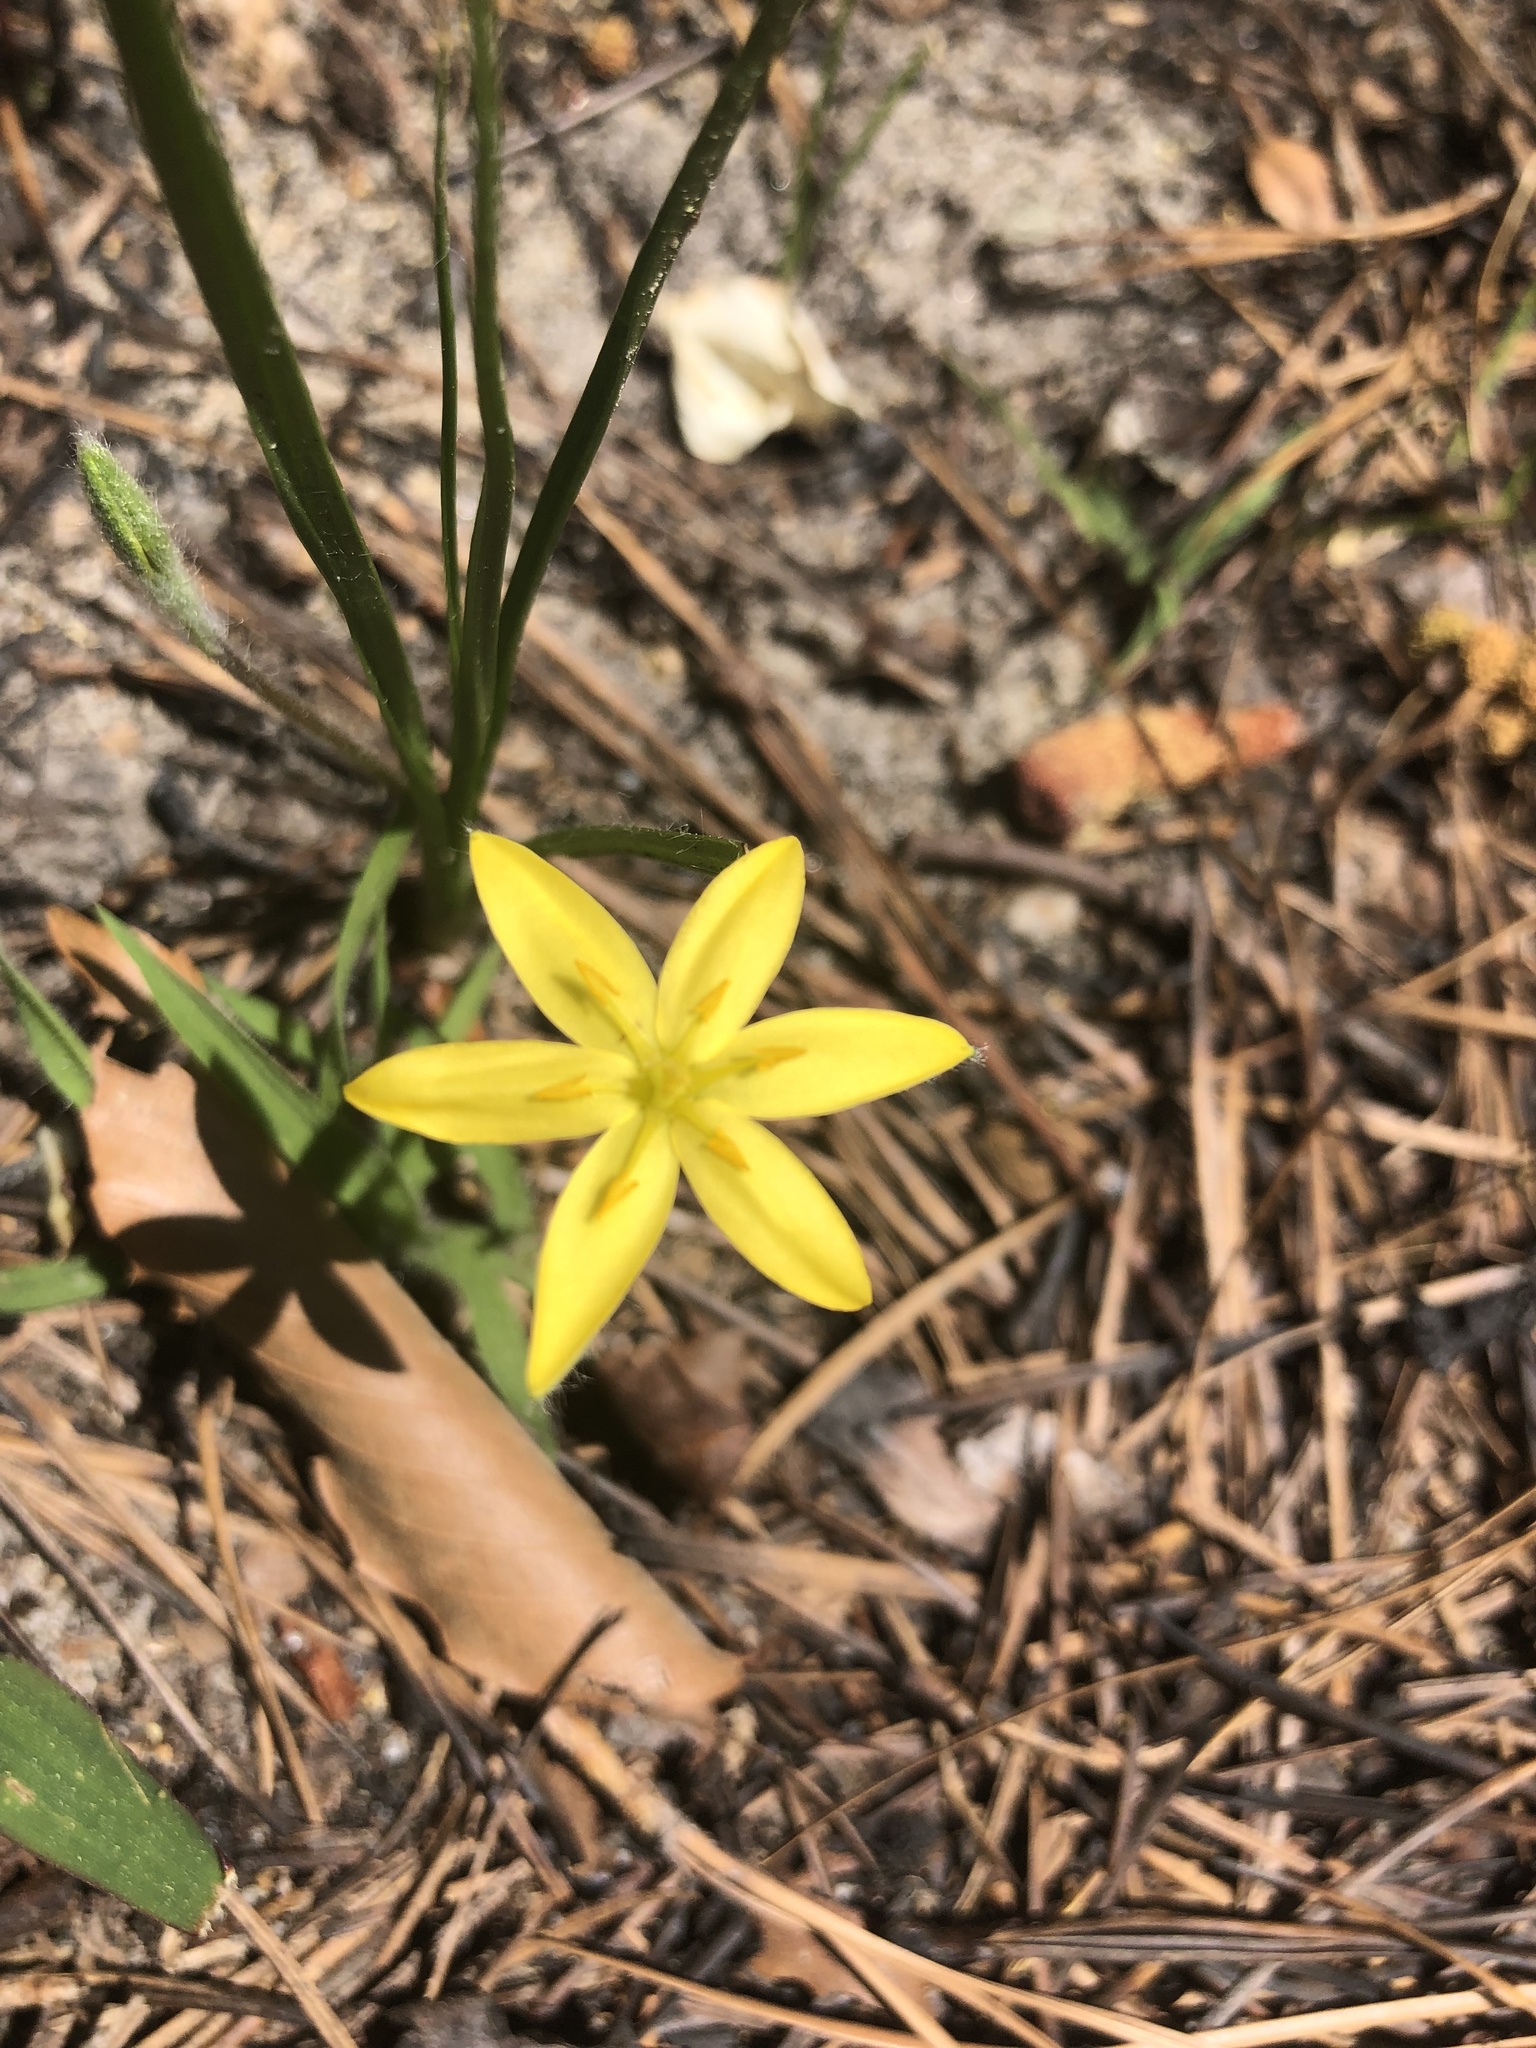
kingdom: Plantae
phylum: Tracheophyta
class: Liliopsida
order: Asparagales
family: Hypoxidaceae
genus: Hypoxis
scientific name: Hypoxis hirsuta
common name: Common goldstar
